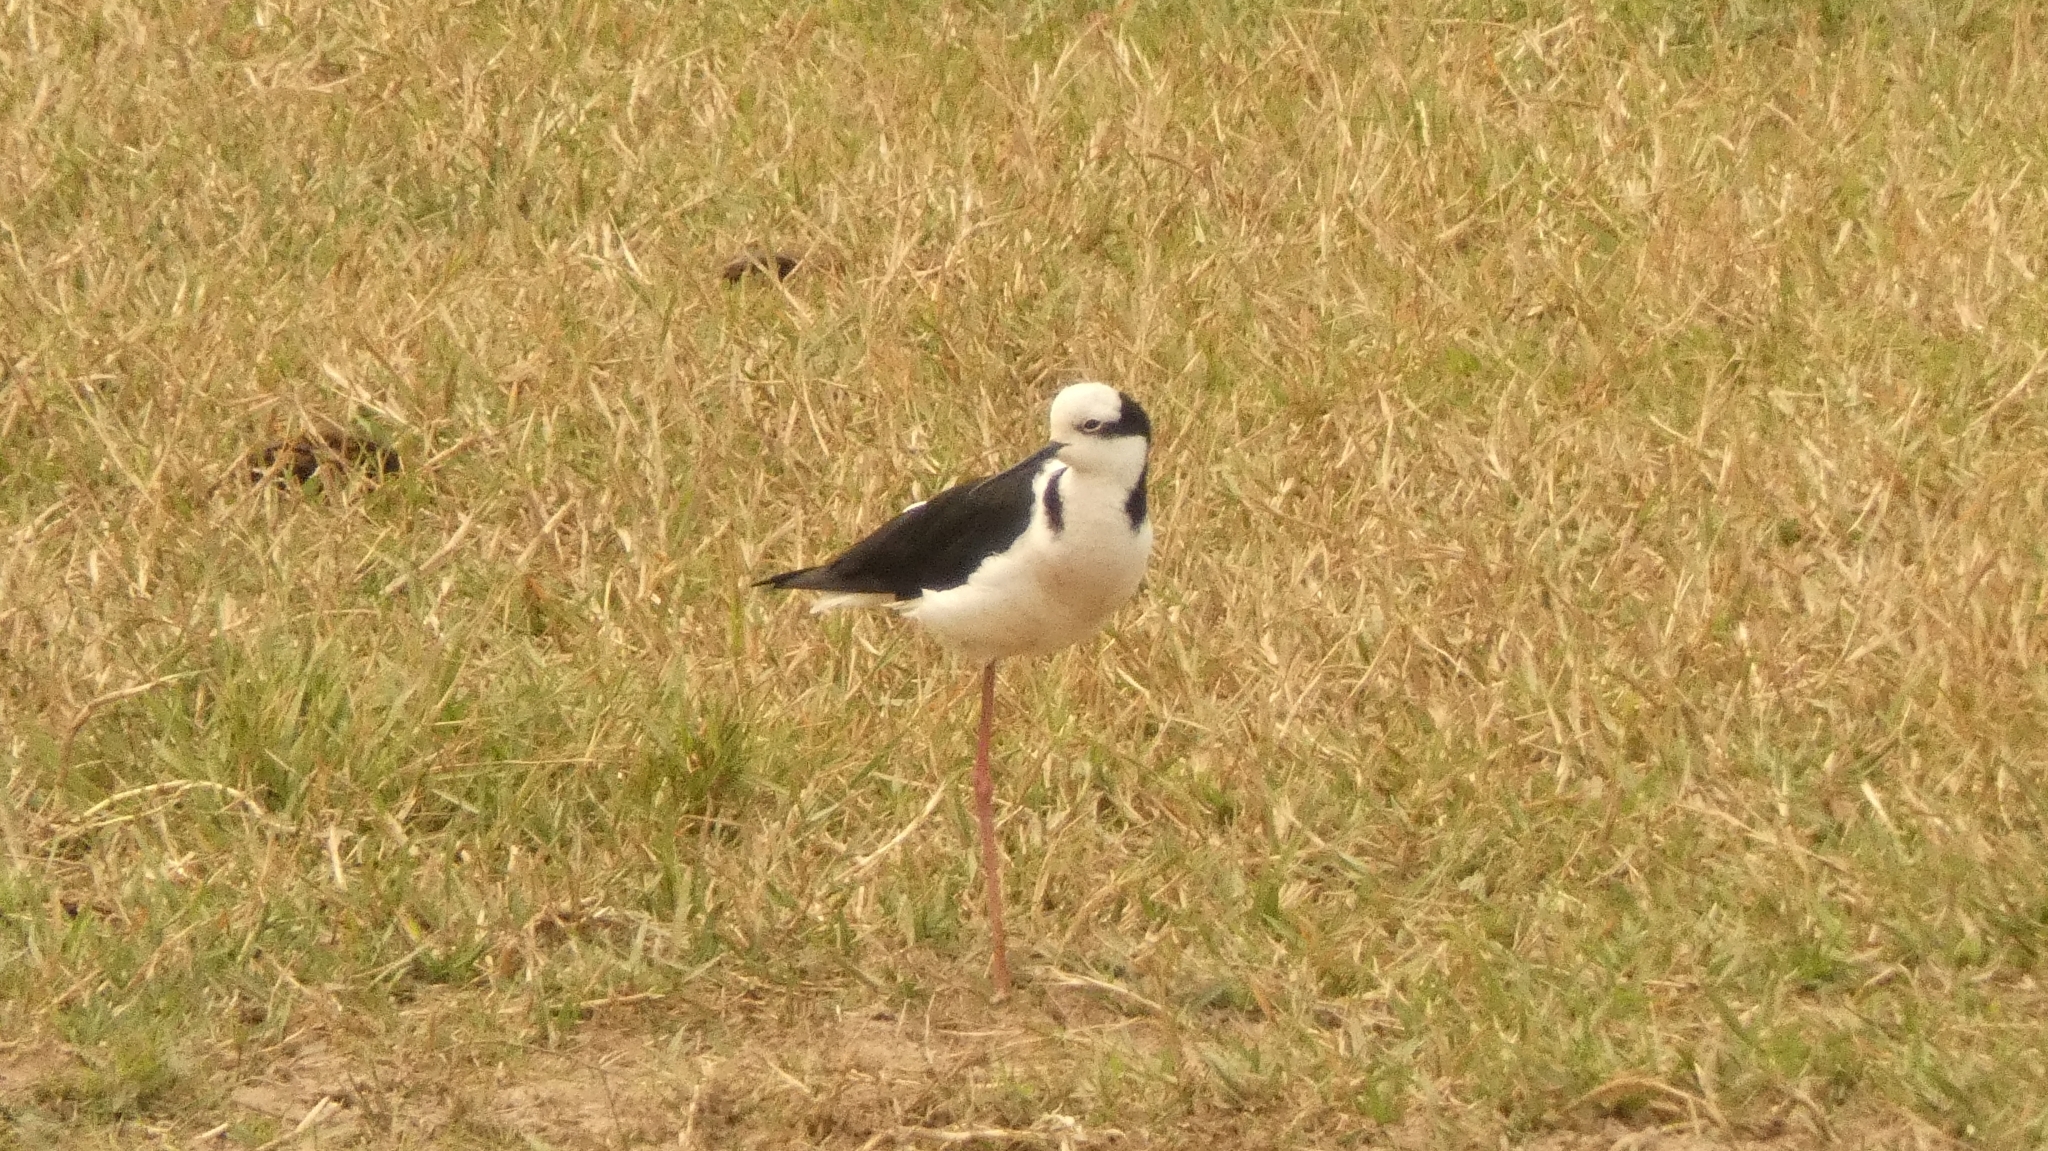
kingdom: Animalia
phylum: Chordata
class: Aves
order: Charadriiformes
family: Recurvirostridae
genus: Himantopus
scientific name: Himantopus mexicanus
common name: Black-necked stilt
